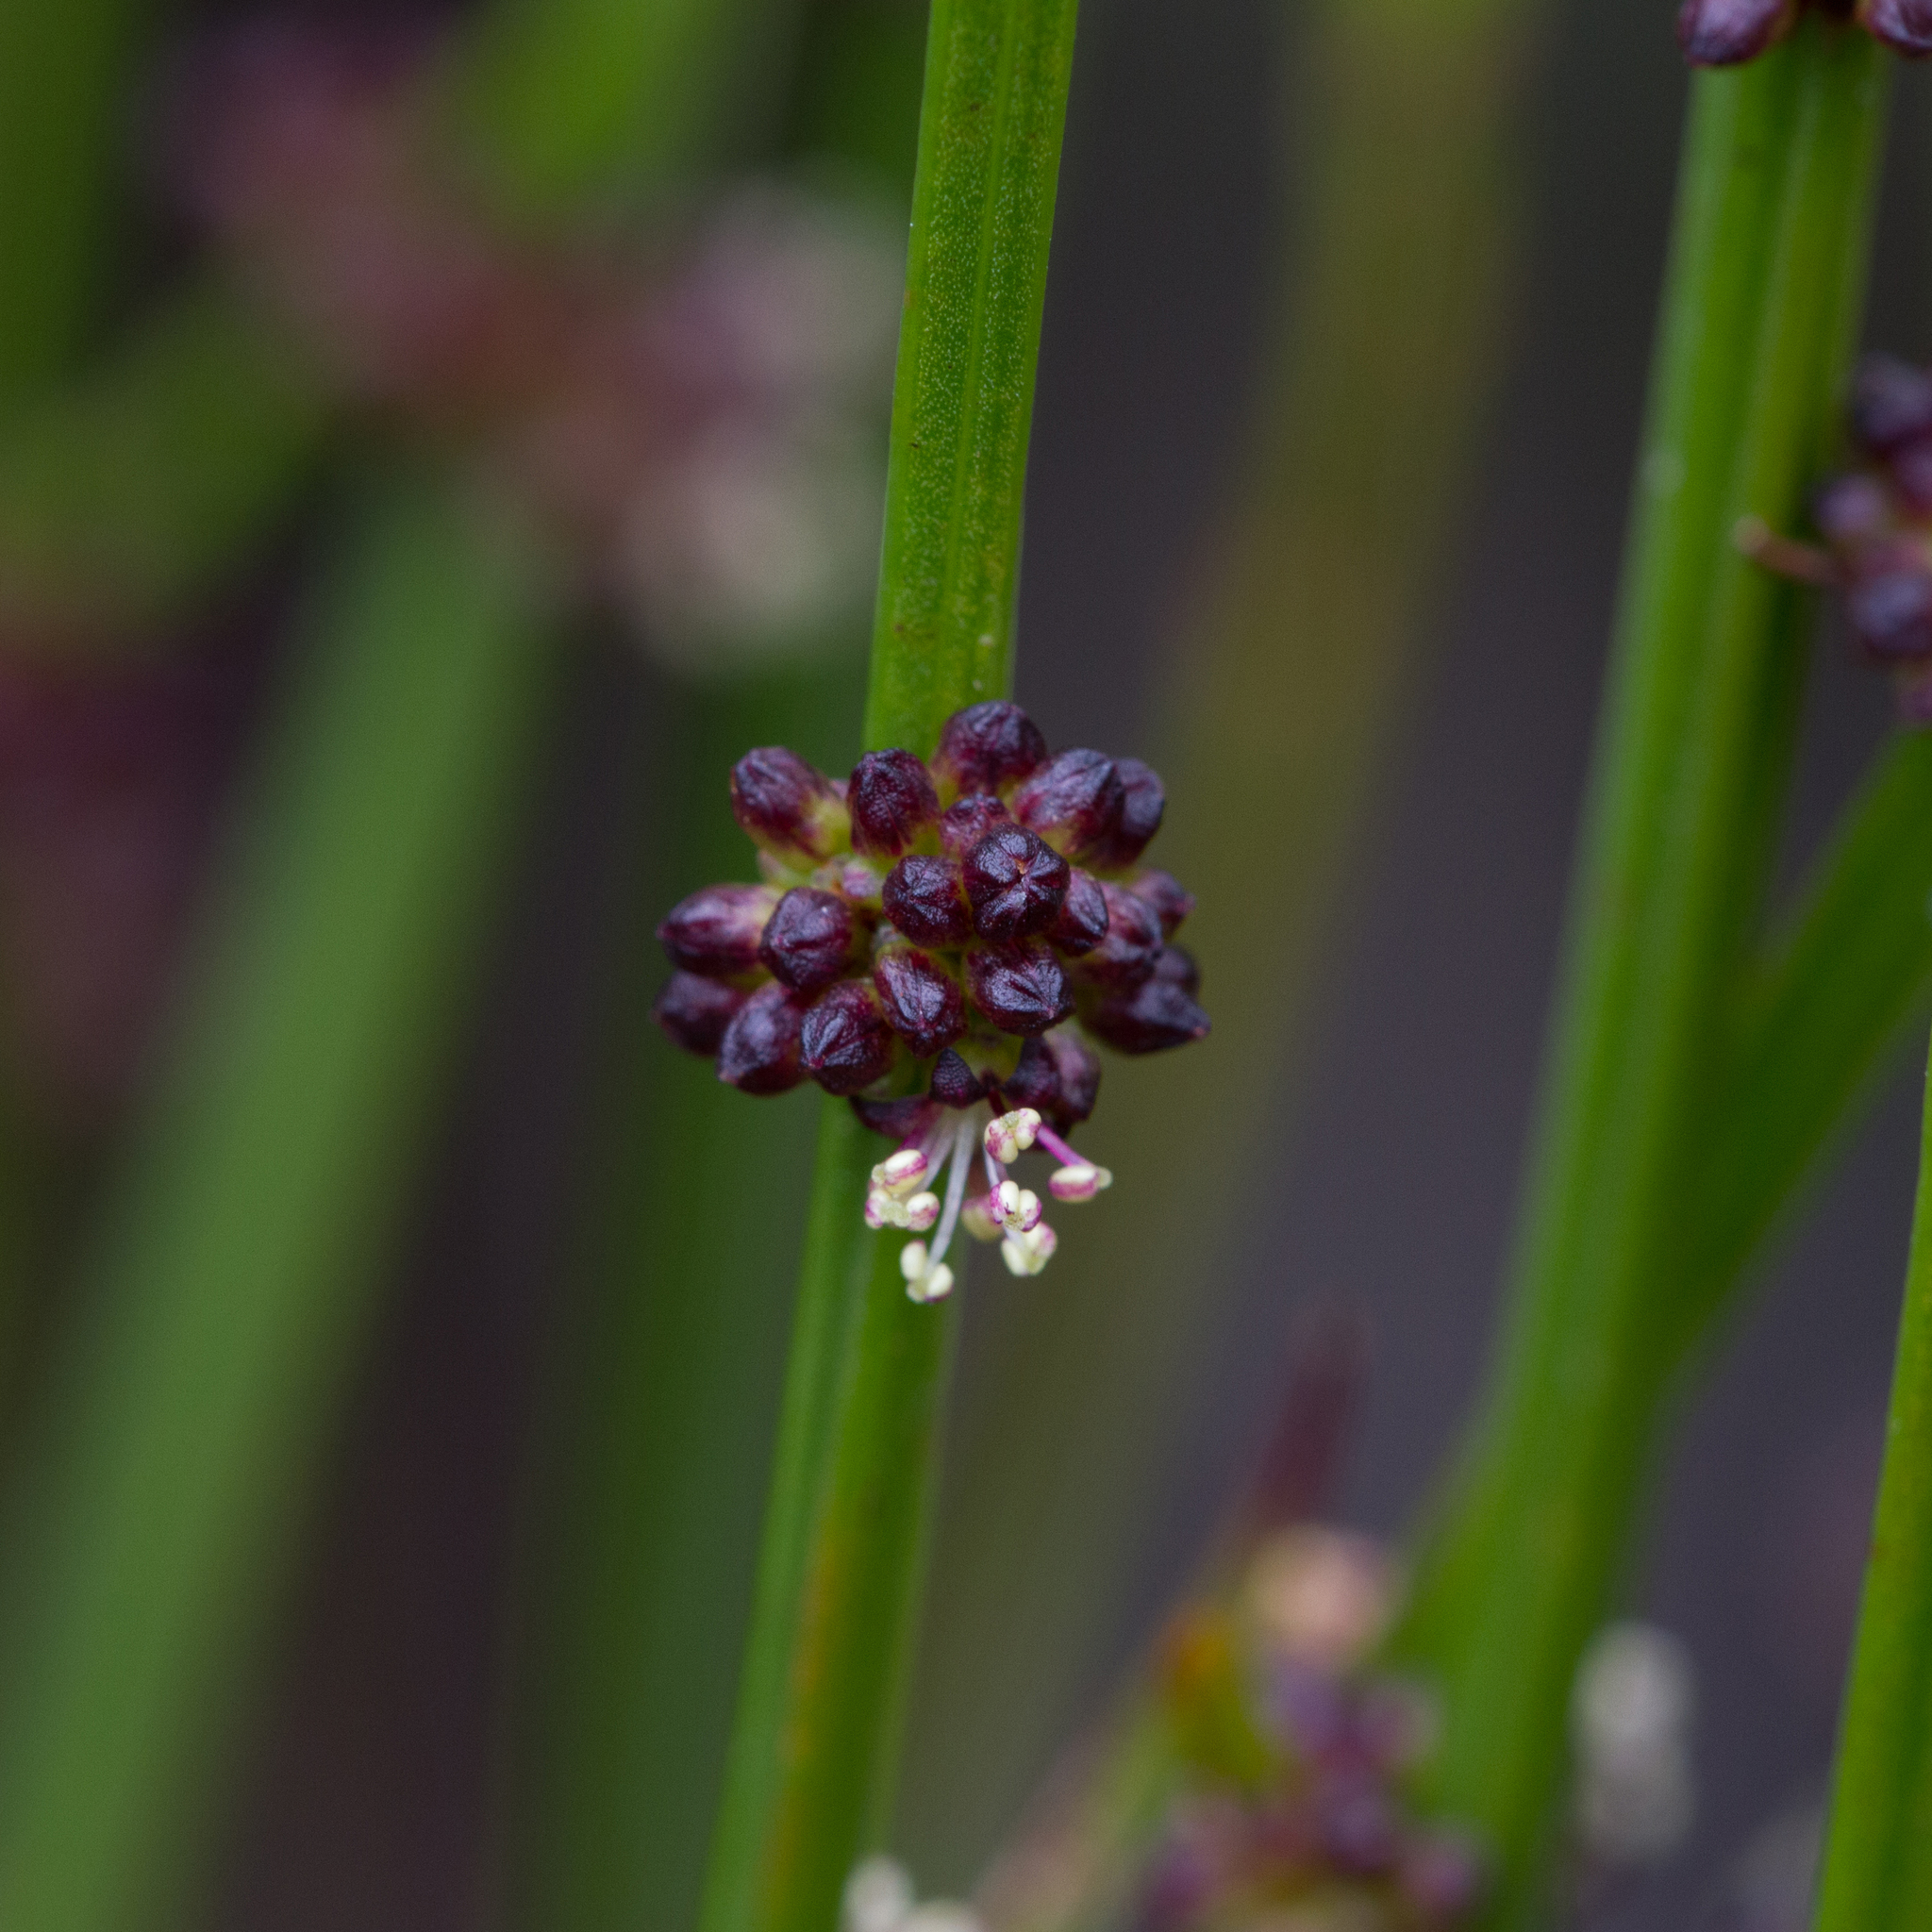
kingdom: Plantae
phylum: Tracheophyta
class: Magnoliopsida
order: Malpighiales
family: Euphorbiaceae
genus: Amperea
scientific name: Amperea xiphoclada
